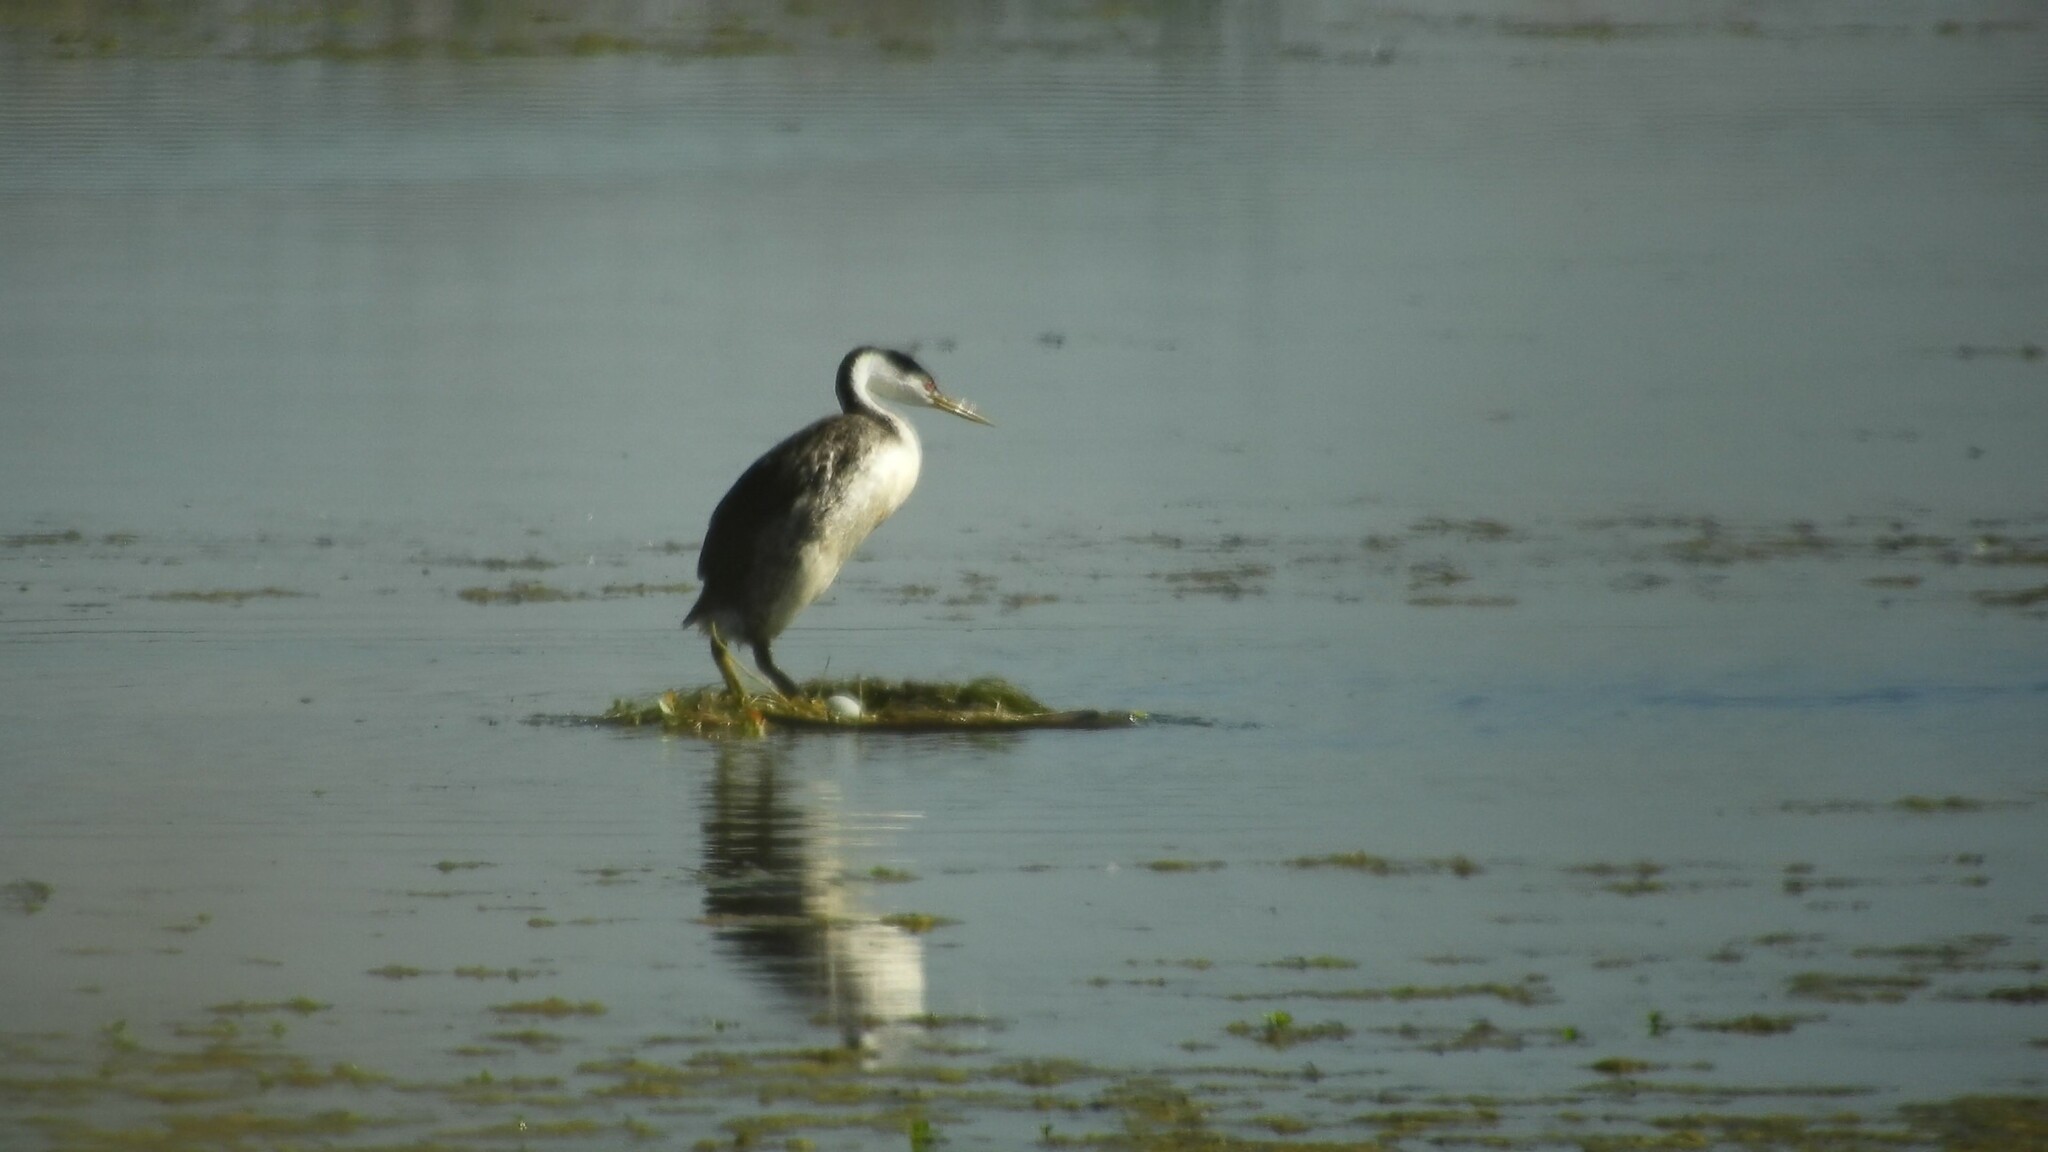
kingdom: Animalia
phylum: Chordata
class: Aves
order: Podicipediformes
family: Podicipedidae
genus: Aechmophorus
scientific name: Aechmophorus clarkii
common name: Clark's grebe
